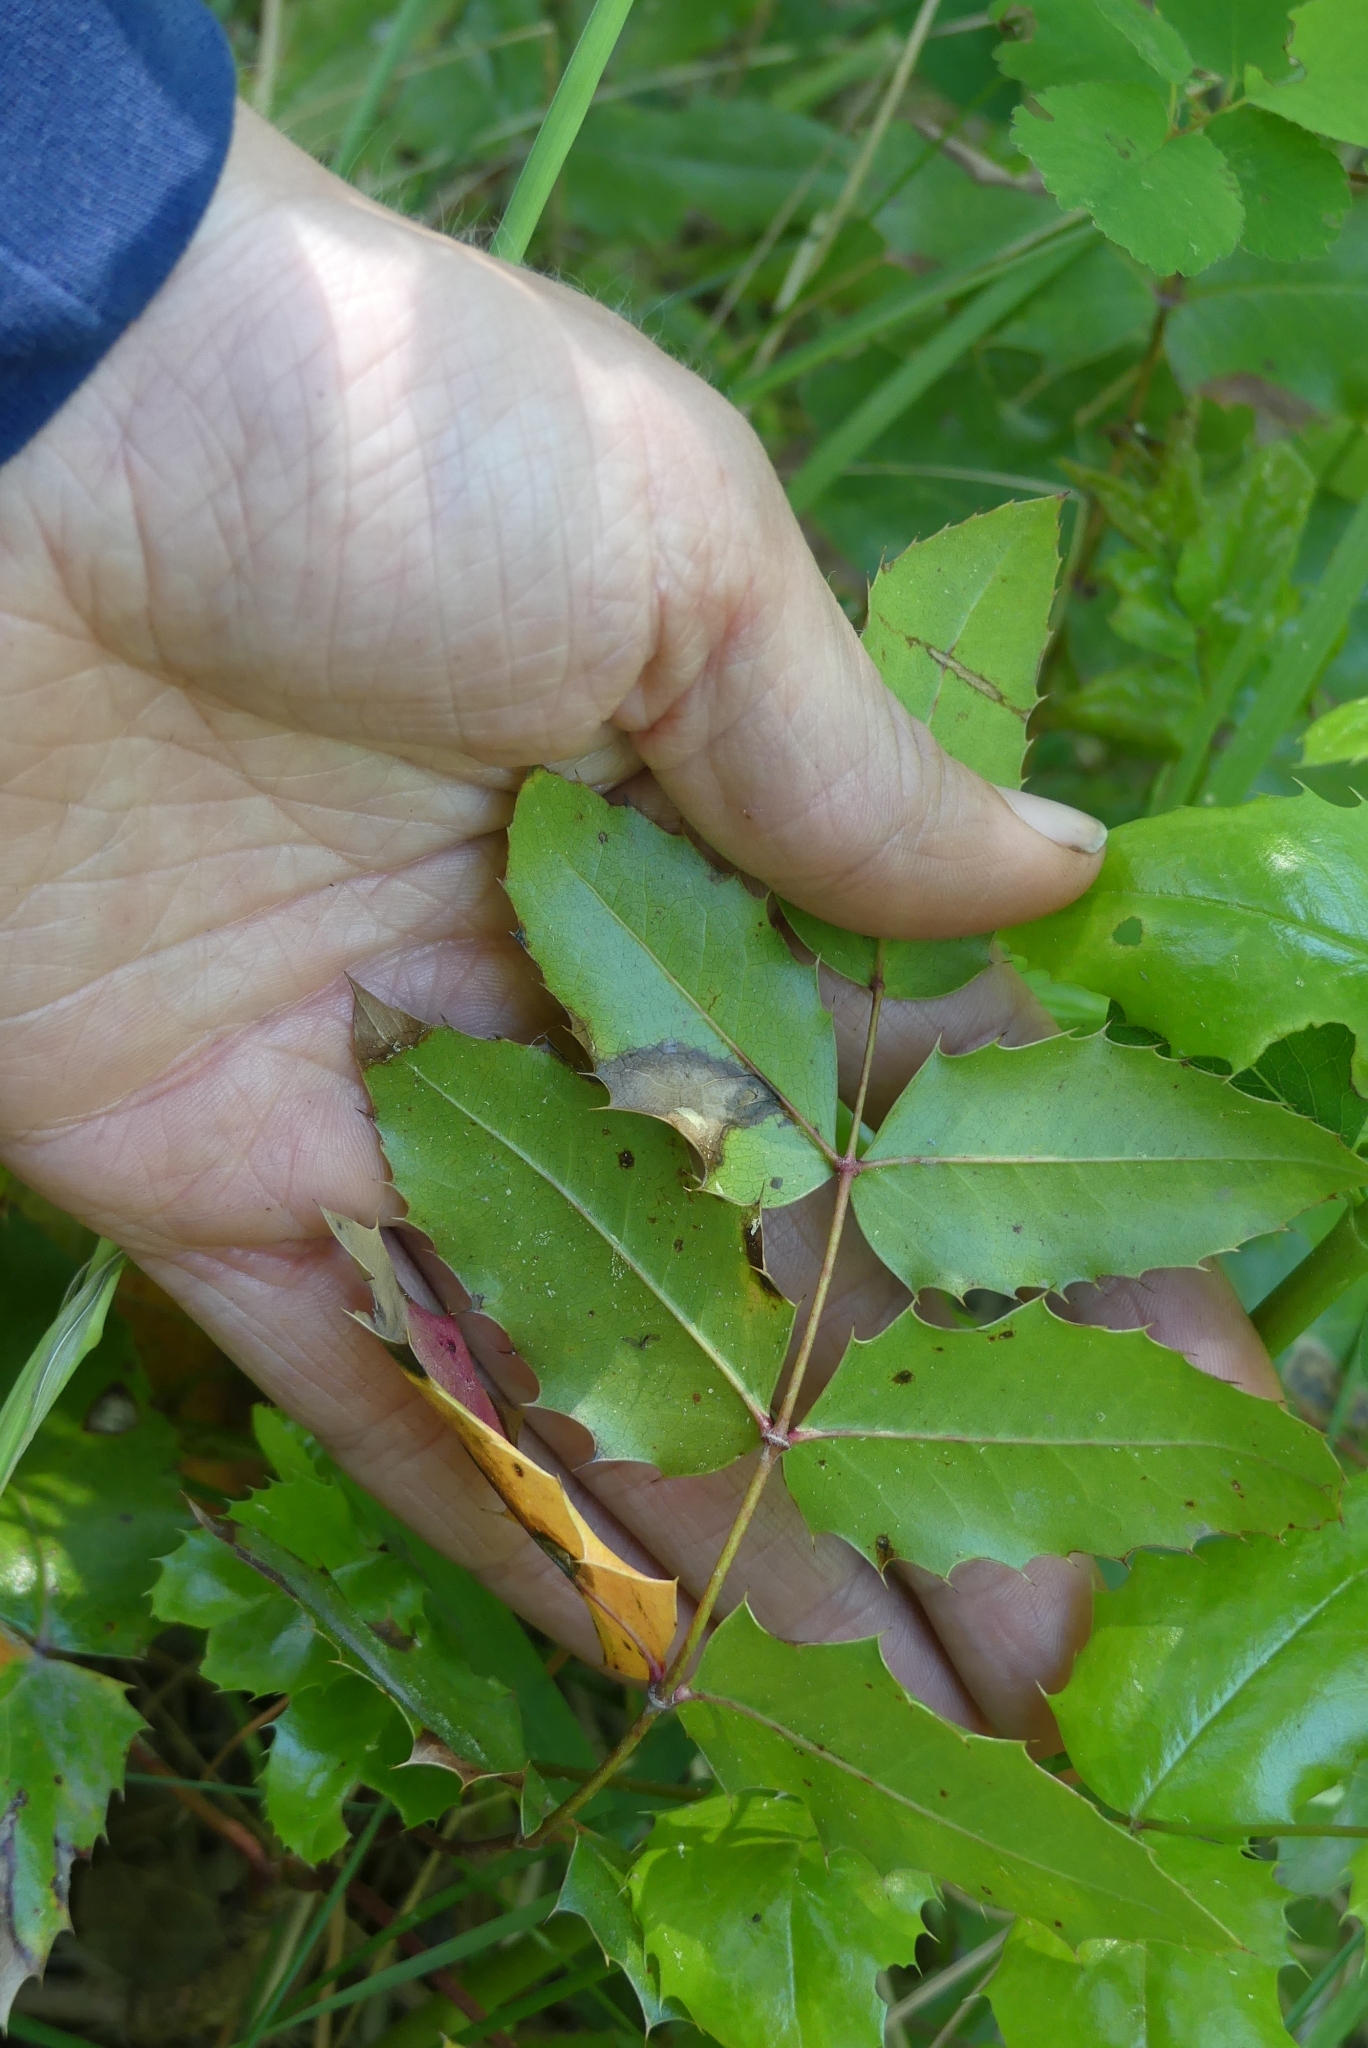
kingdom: Plantae
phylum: Tracheophyta
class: Magnoliopsida
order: Ranunculales
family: Berberidaceae
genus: Mahonia
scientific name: Mahonia aquifolium
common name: Oregon-grape
